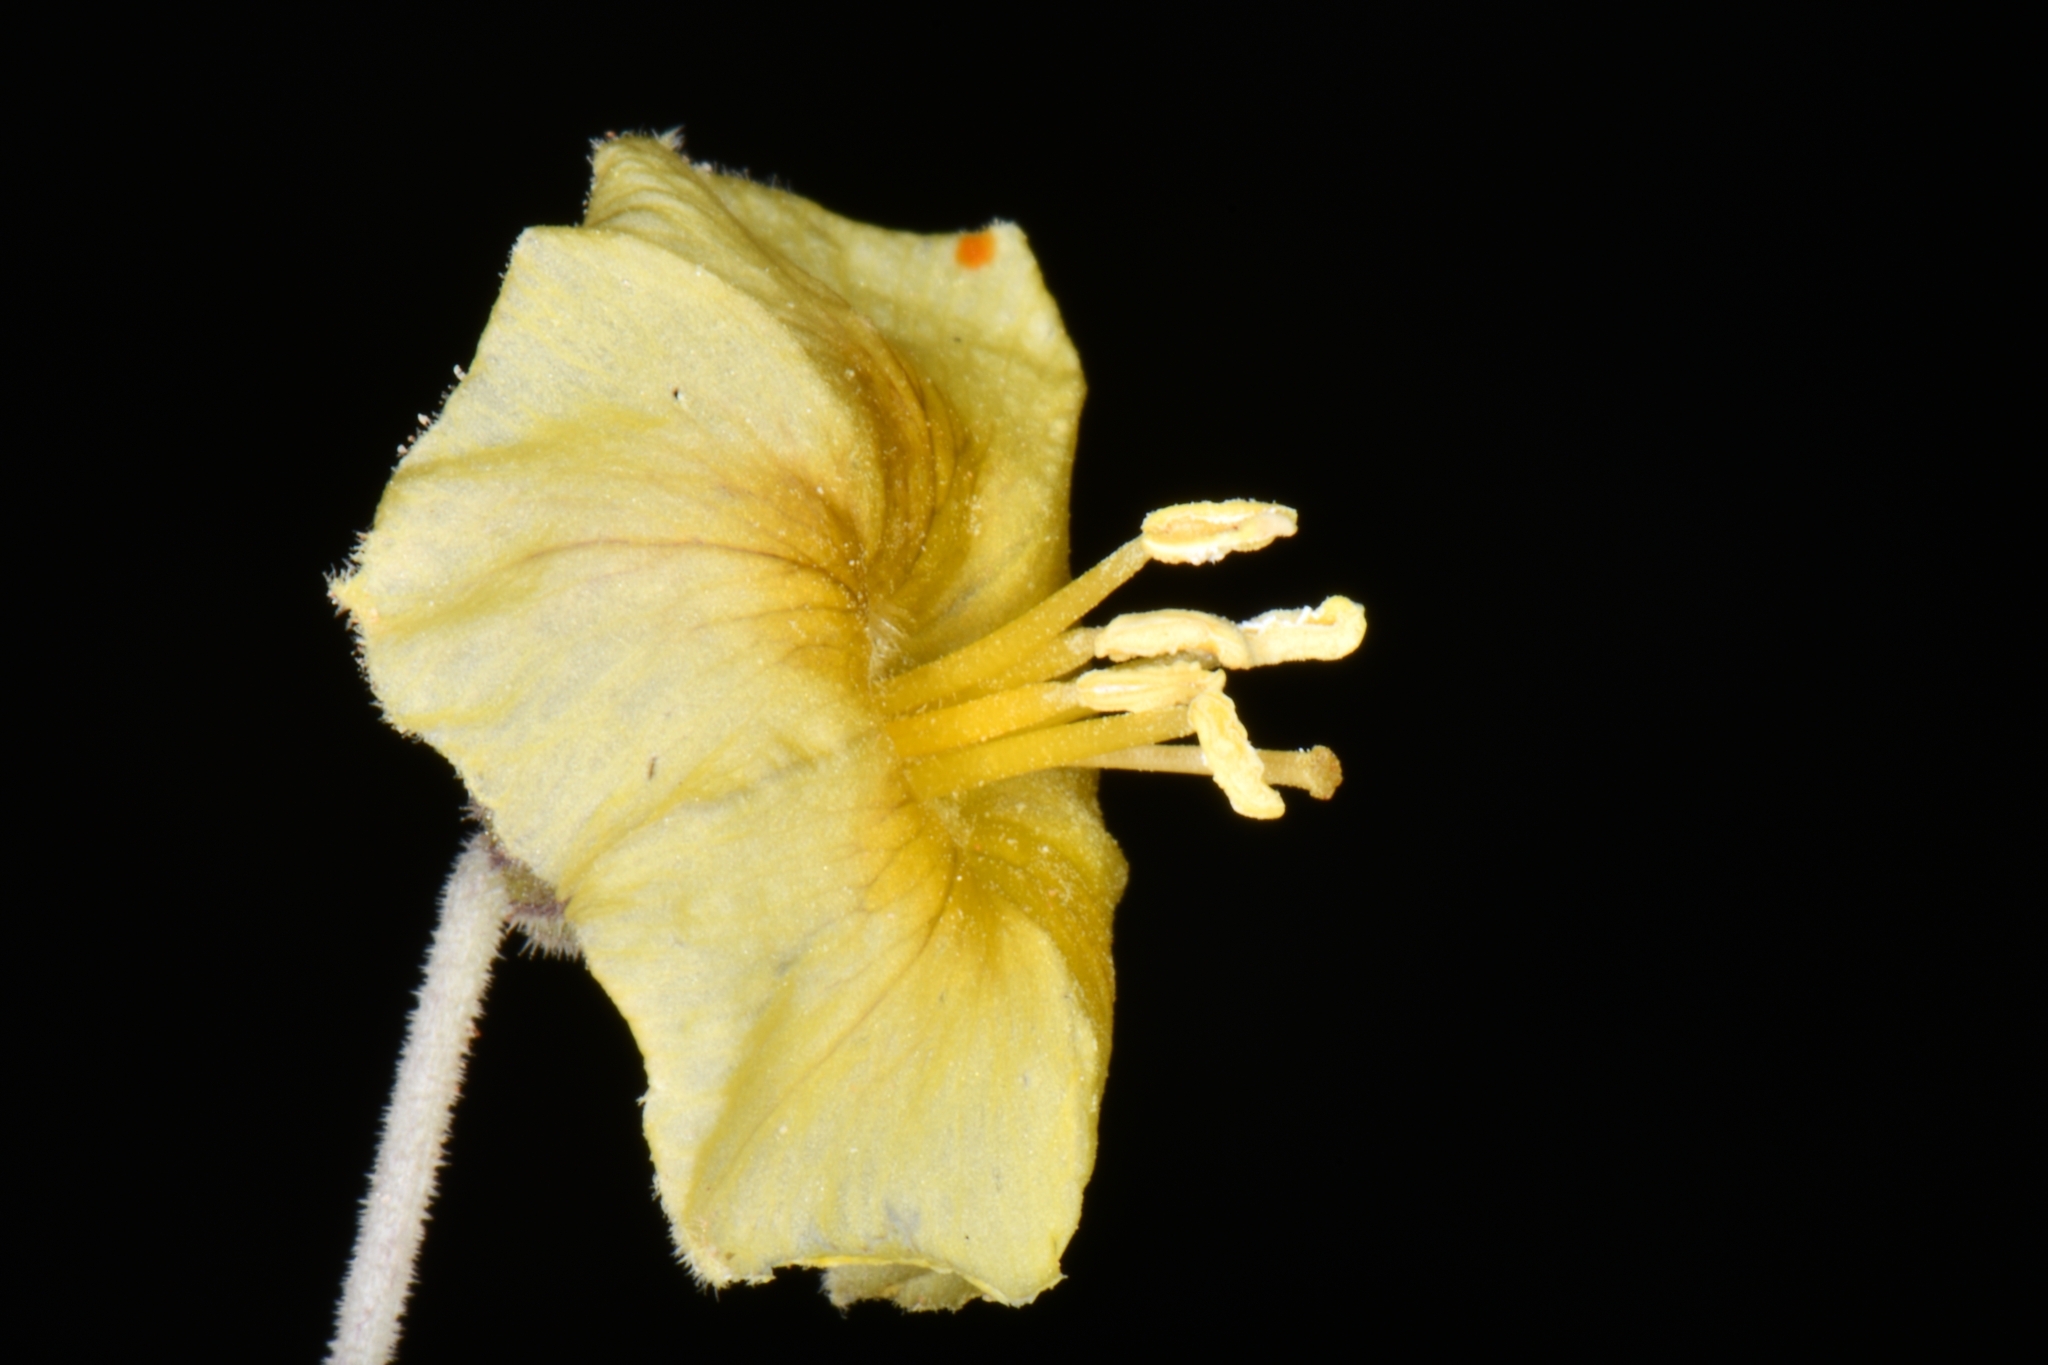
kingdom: Plantae
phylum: Tracheophyta
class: Magnoliopsida
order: Solanales
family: Solanaceae
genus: Physalis
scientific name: Physalis crassifolia
